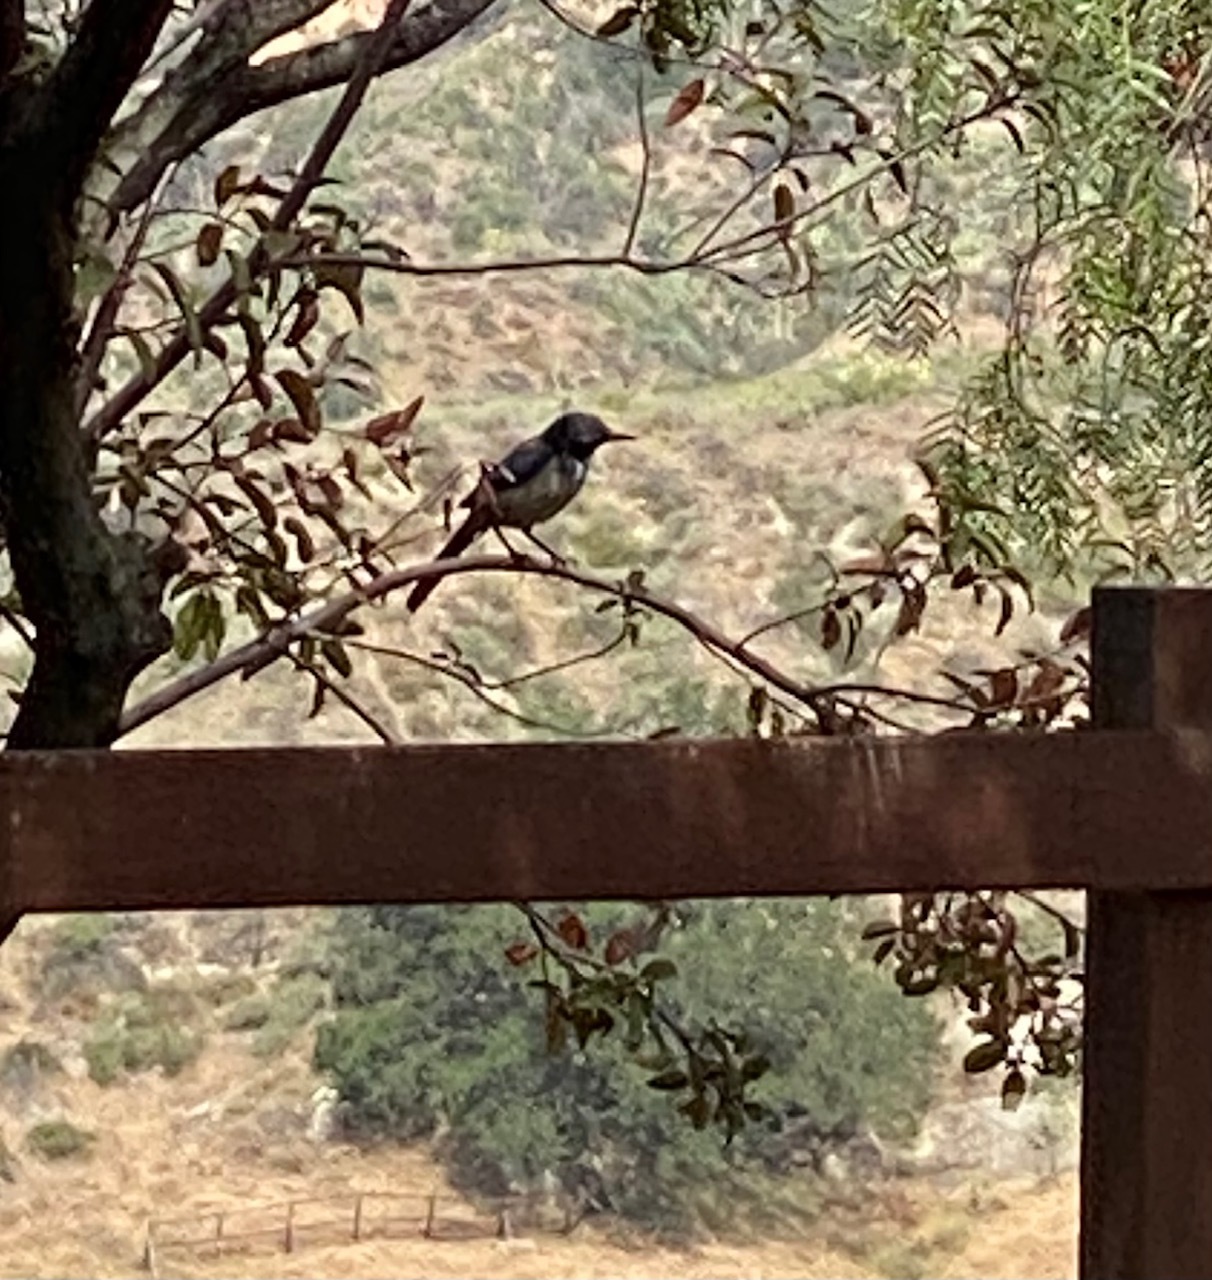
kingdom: Animalia
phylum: Chordata
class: Aves
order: Passeriformes
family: Corvidae
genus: Aphelocoma
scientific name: Aphelocoma californica
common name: California scrub-jay
